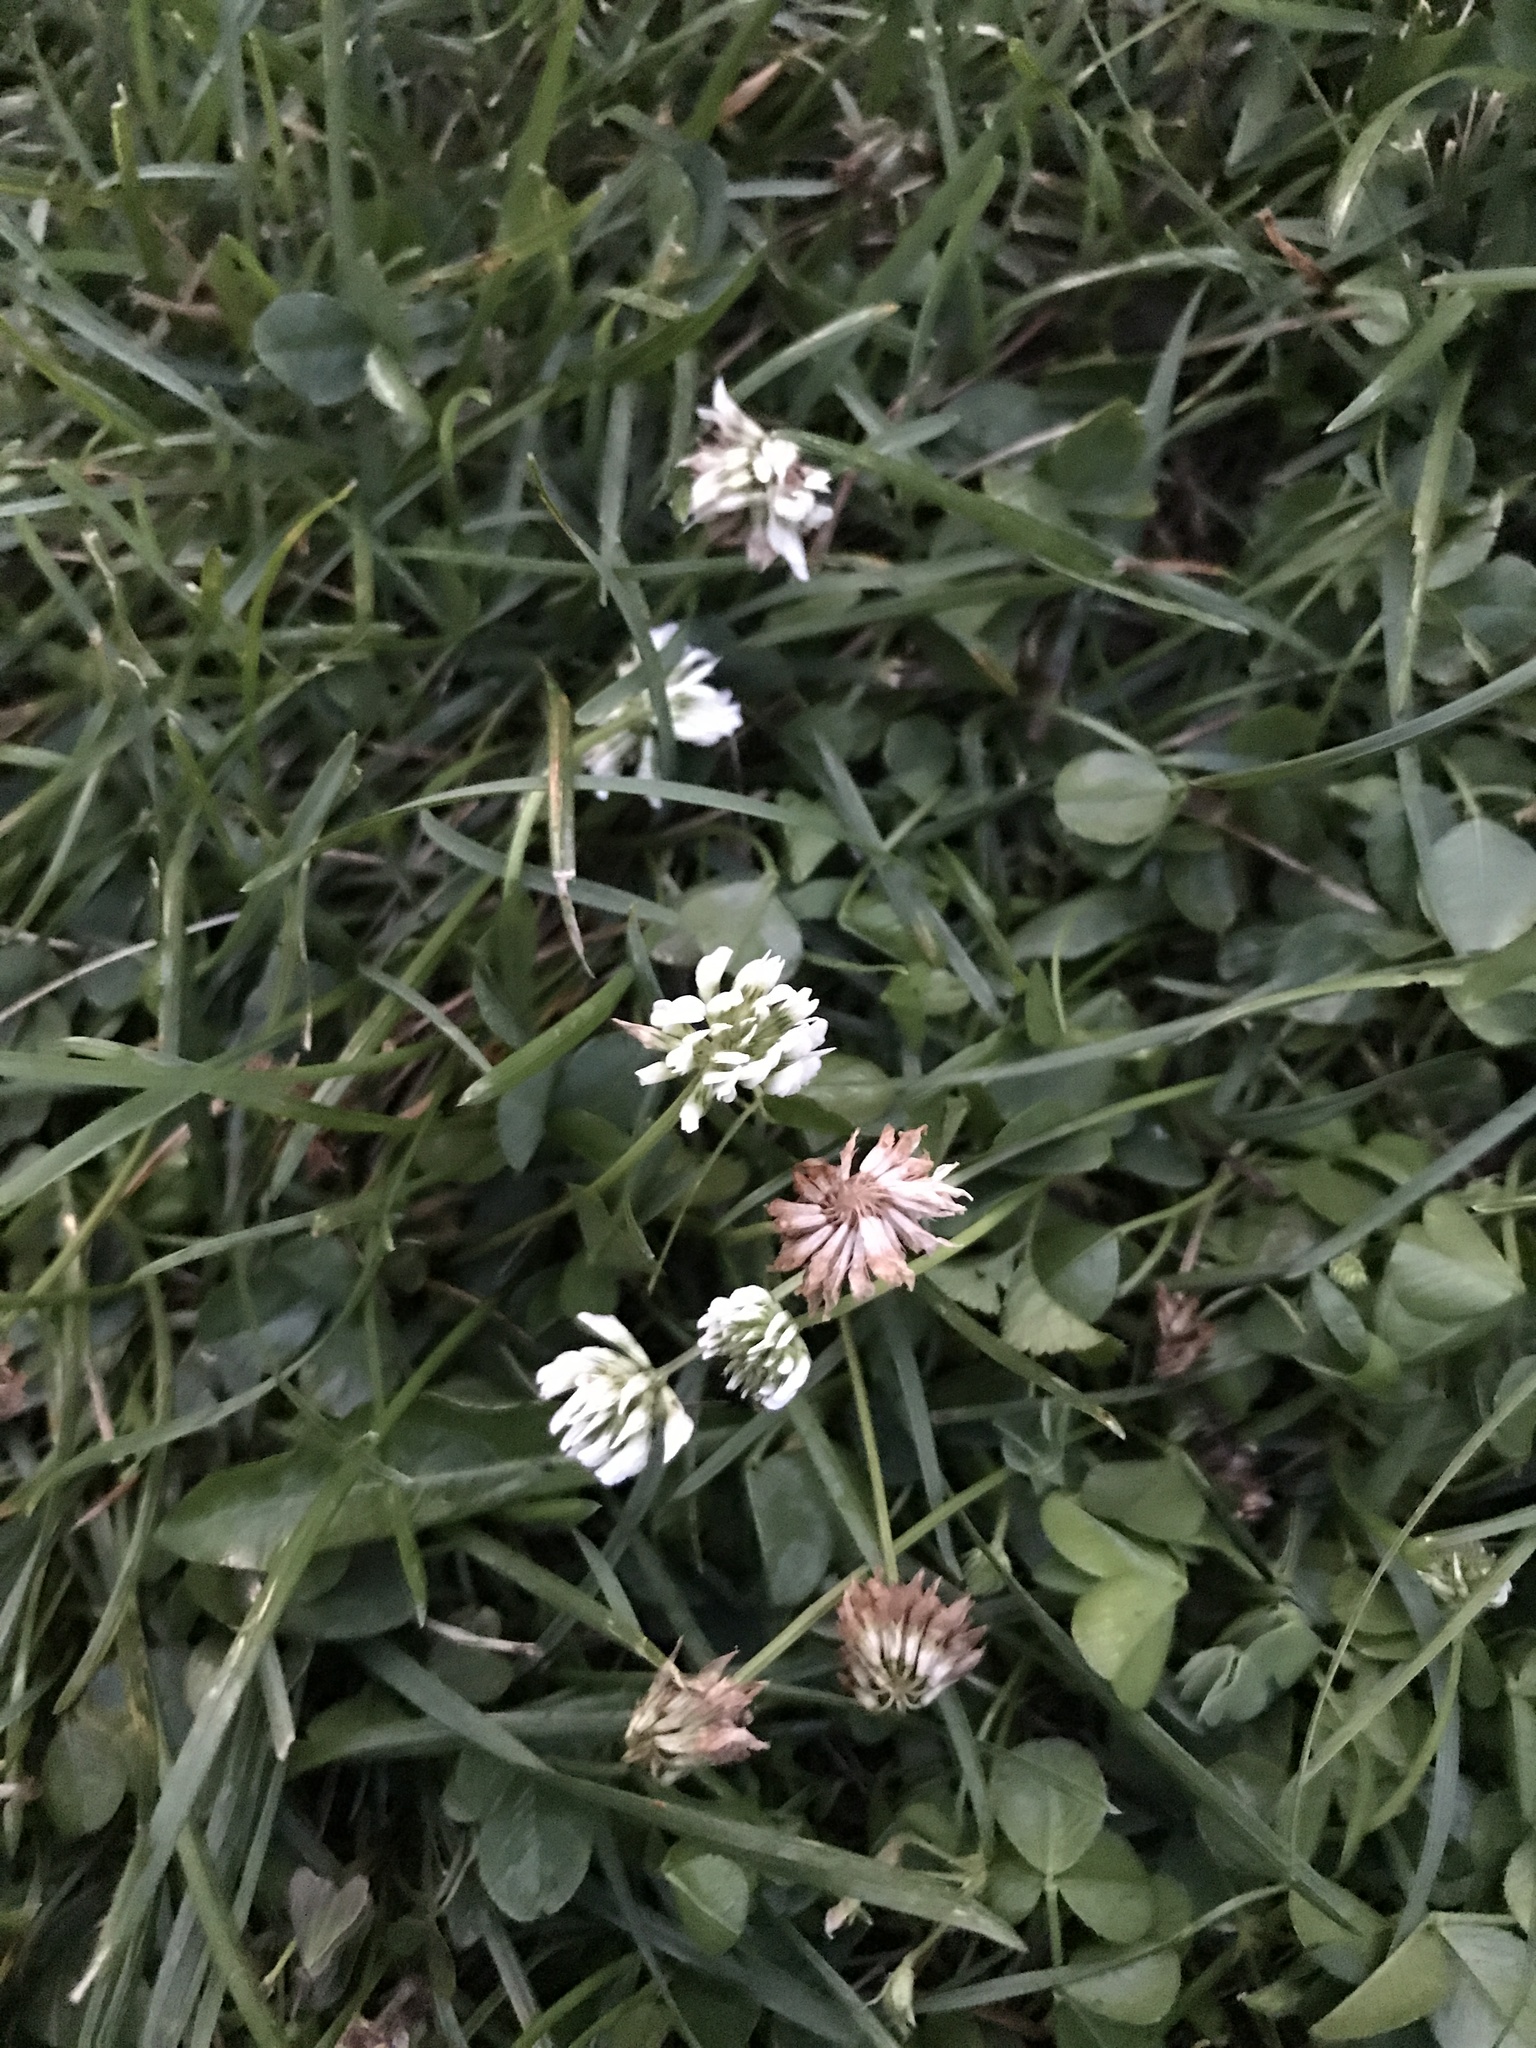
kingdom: Plantae
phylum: Tracheophyta
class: Magnoliopsida
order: Fabales
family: Fabaceae
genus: Trifolium
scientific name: Trifolium repens
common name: White clover
